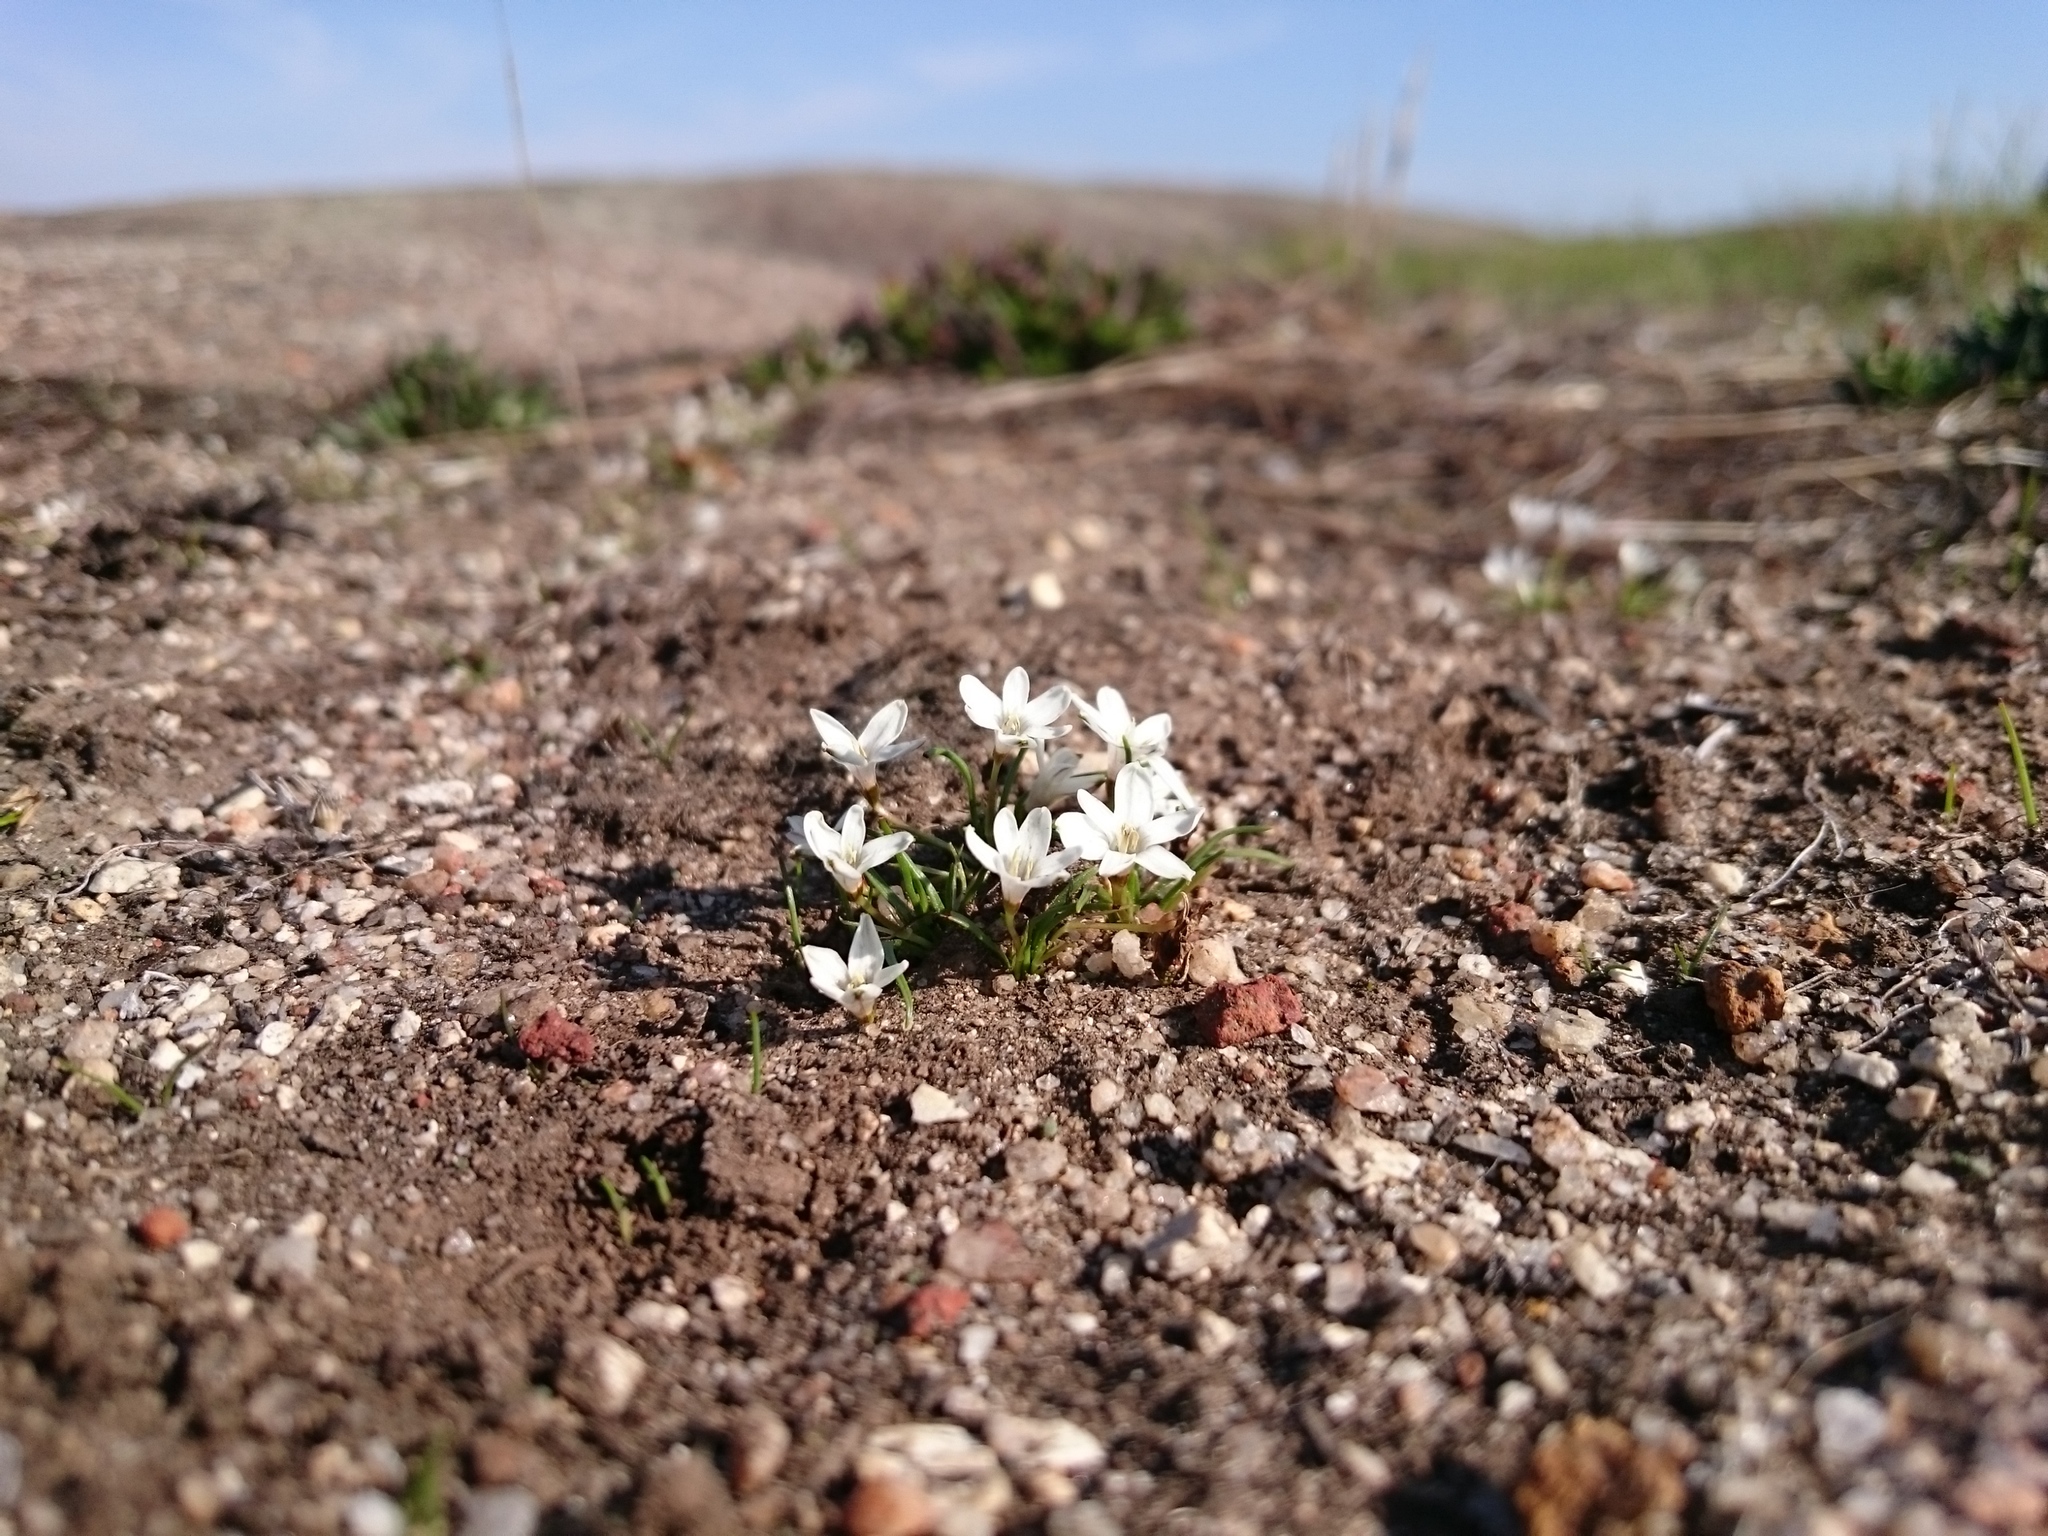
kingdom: Plantae
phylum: Tracheophyta
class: Liliopsida
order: Asparagales
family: Hypoxidaceae
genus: Pauridia
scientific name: Pauridia minuta
